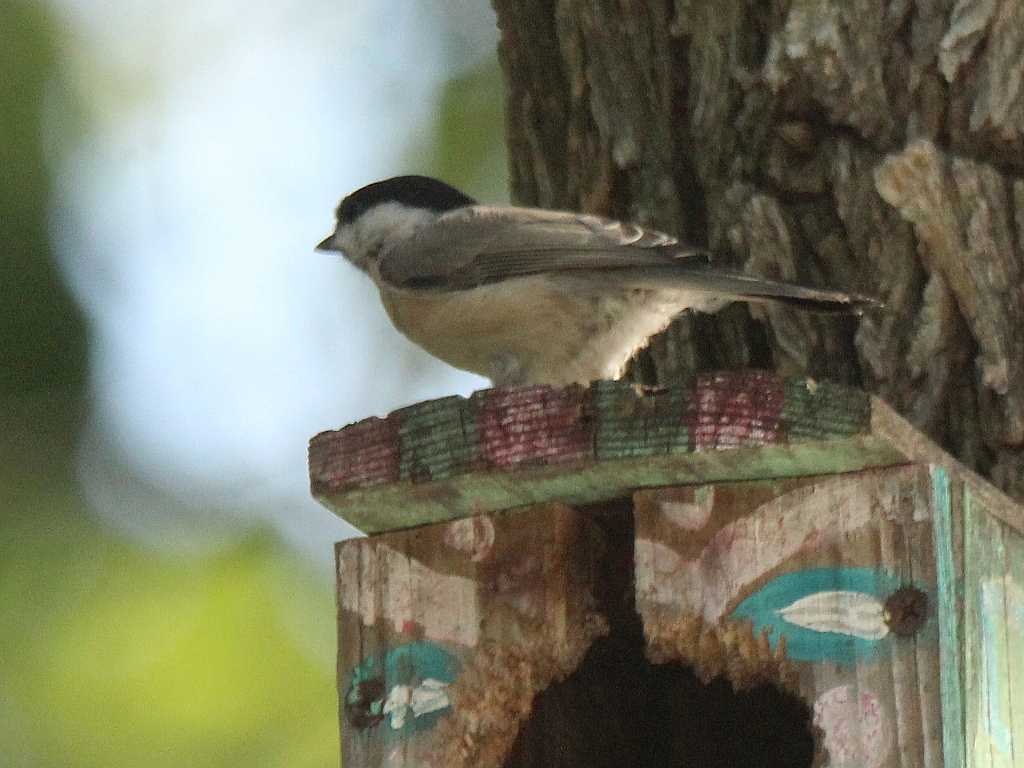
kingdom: Animalia
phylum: Chordata
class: Aves
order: Passeriformes
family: Paridae
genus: Poecile
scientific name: Poecile palustris
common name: Marsh tit
